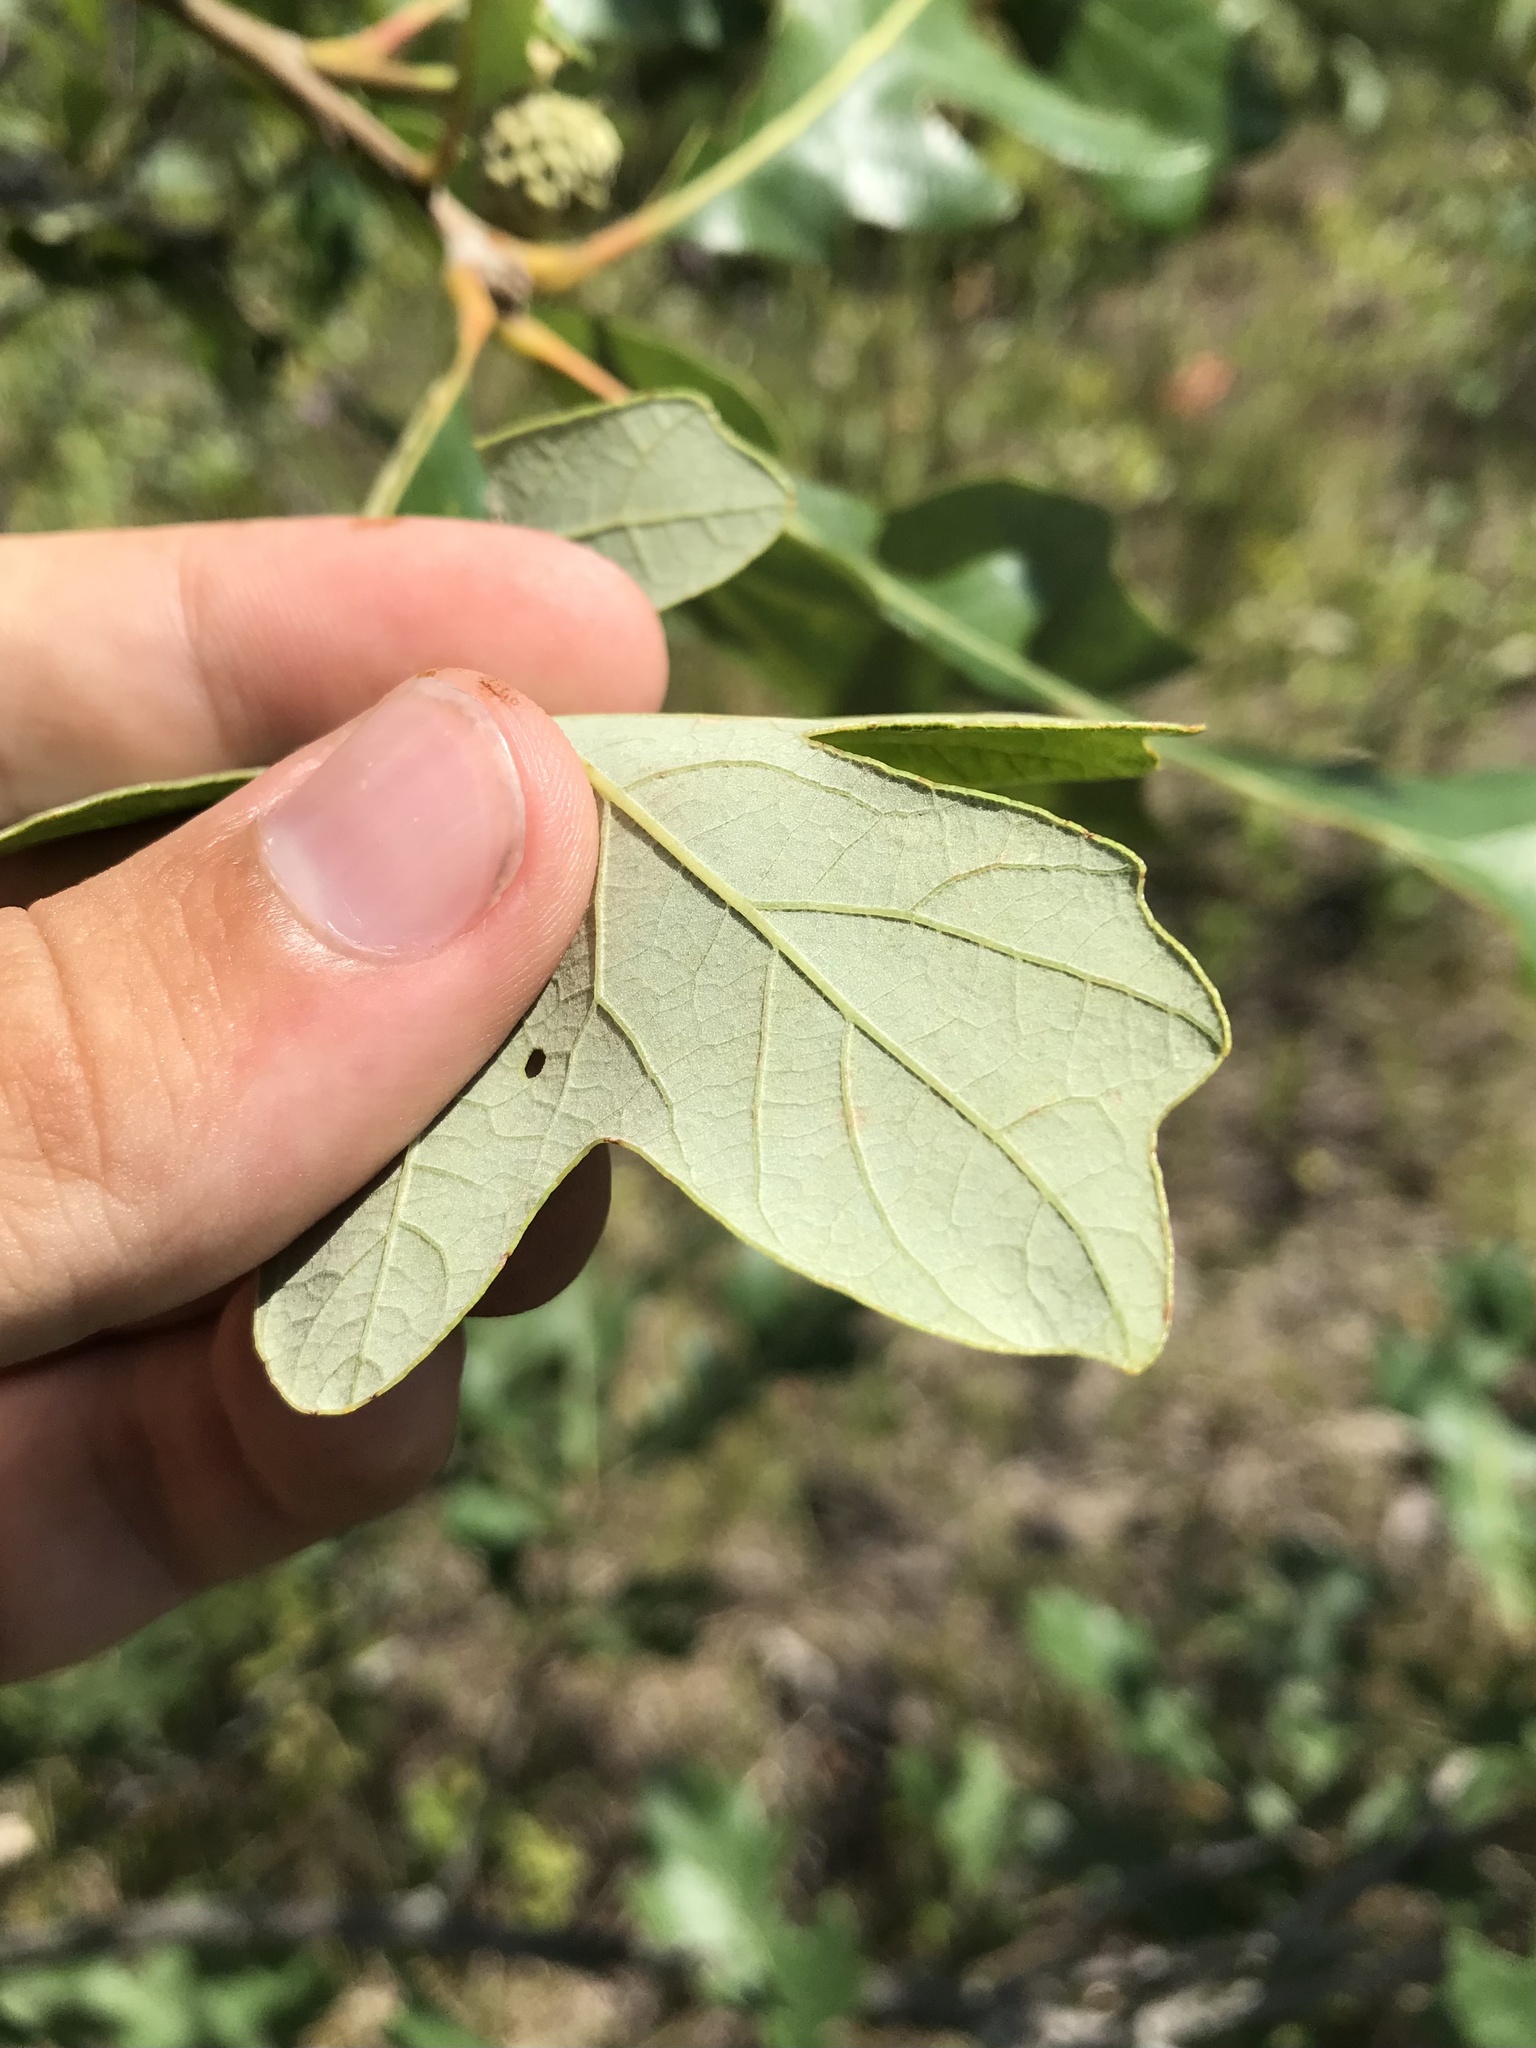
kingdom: Plantae
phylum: Tracheophyta
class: Magnoliopsida
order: Fagales
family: Fagaceae
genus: Quercus
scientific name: Quercus macrocarpa
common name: Bur oak
